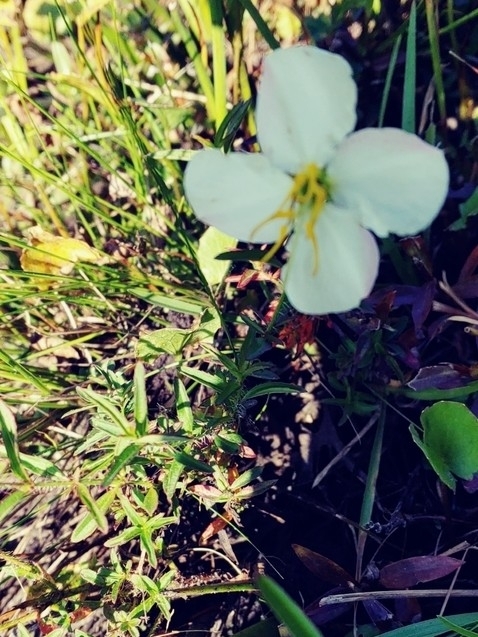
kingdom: Plantae
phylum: Tracheophyta
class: Magnoliopsida
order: Myrtales
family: Melastomataceae
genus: Rhexia
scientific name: Rhexia mariana
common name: Dull meadow-pitcher
